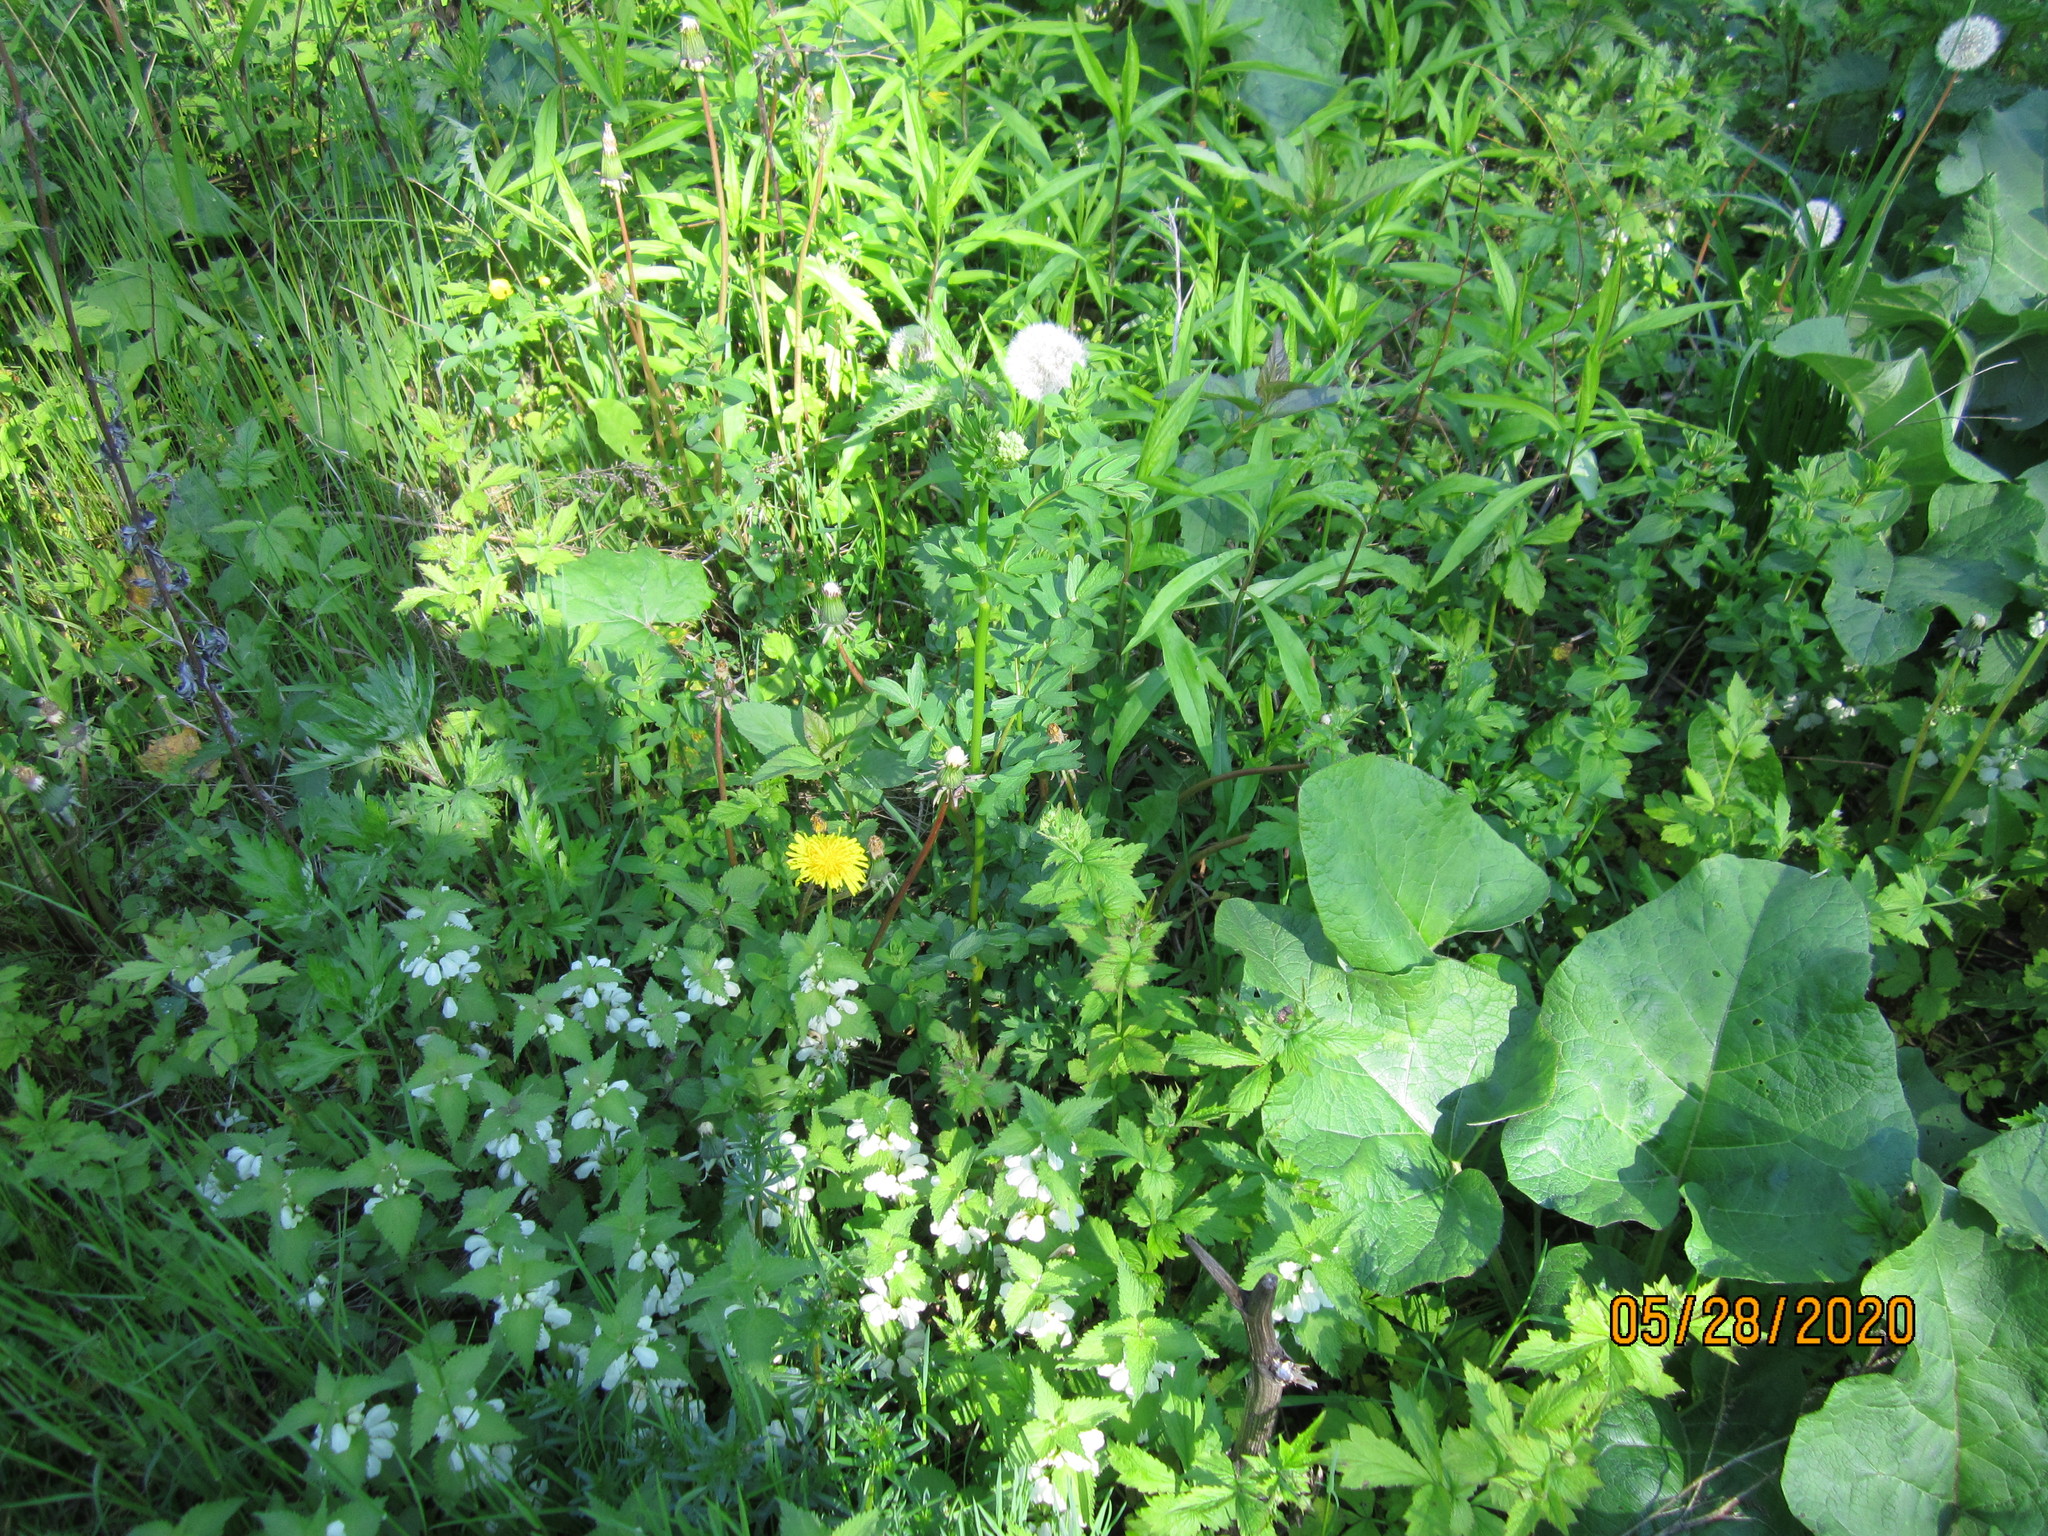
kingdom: Plantae
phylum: Tracheophyta
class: Magnoliopsida
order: Ranunculales
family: Ranunculaceae
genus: Thalictrum
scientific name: Thalictrum flavum
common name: Common meadow-rue
